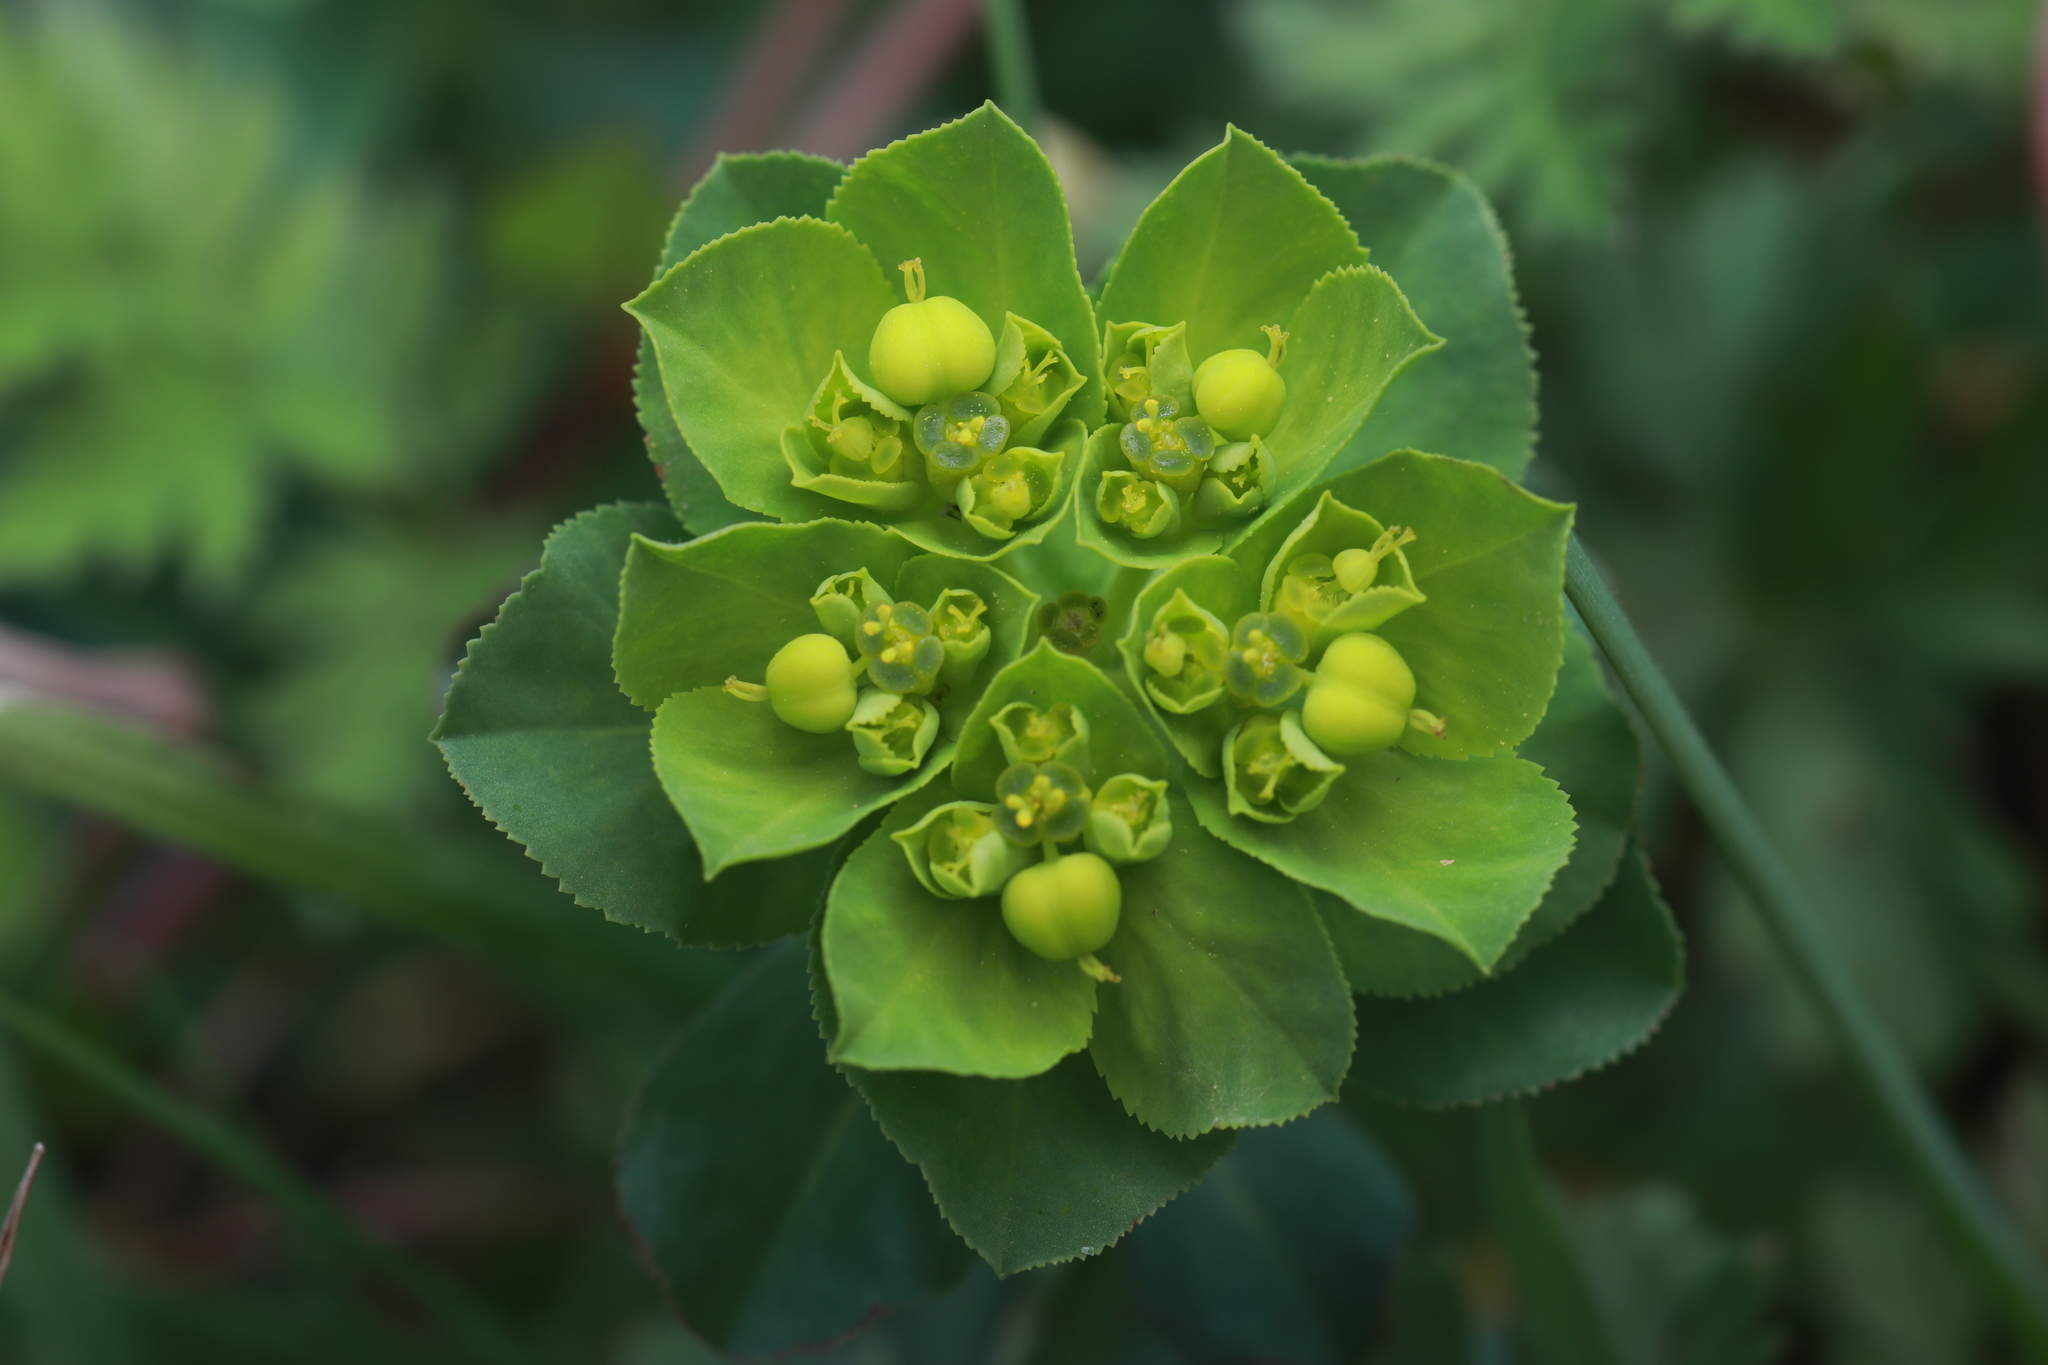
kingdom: Plantae
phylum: Tracheophyta
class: Magnoliopsida
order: Malpighiales
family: Euphorbiaceae
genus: Euphorbia
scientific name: Euphorbia helioscopia
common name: Sun spurge
